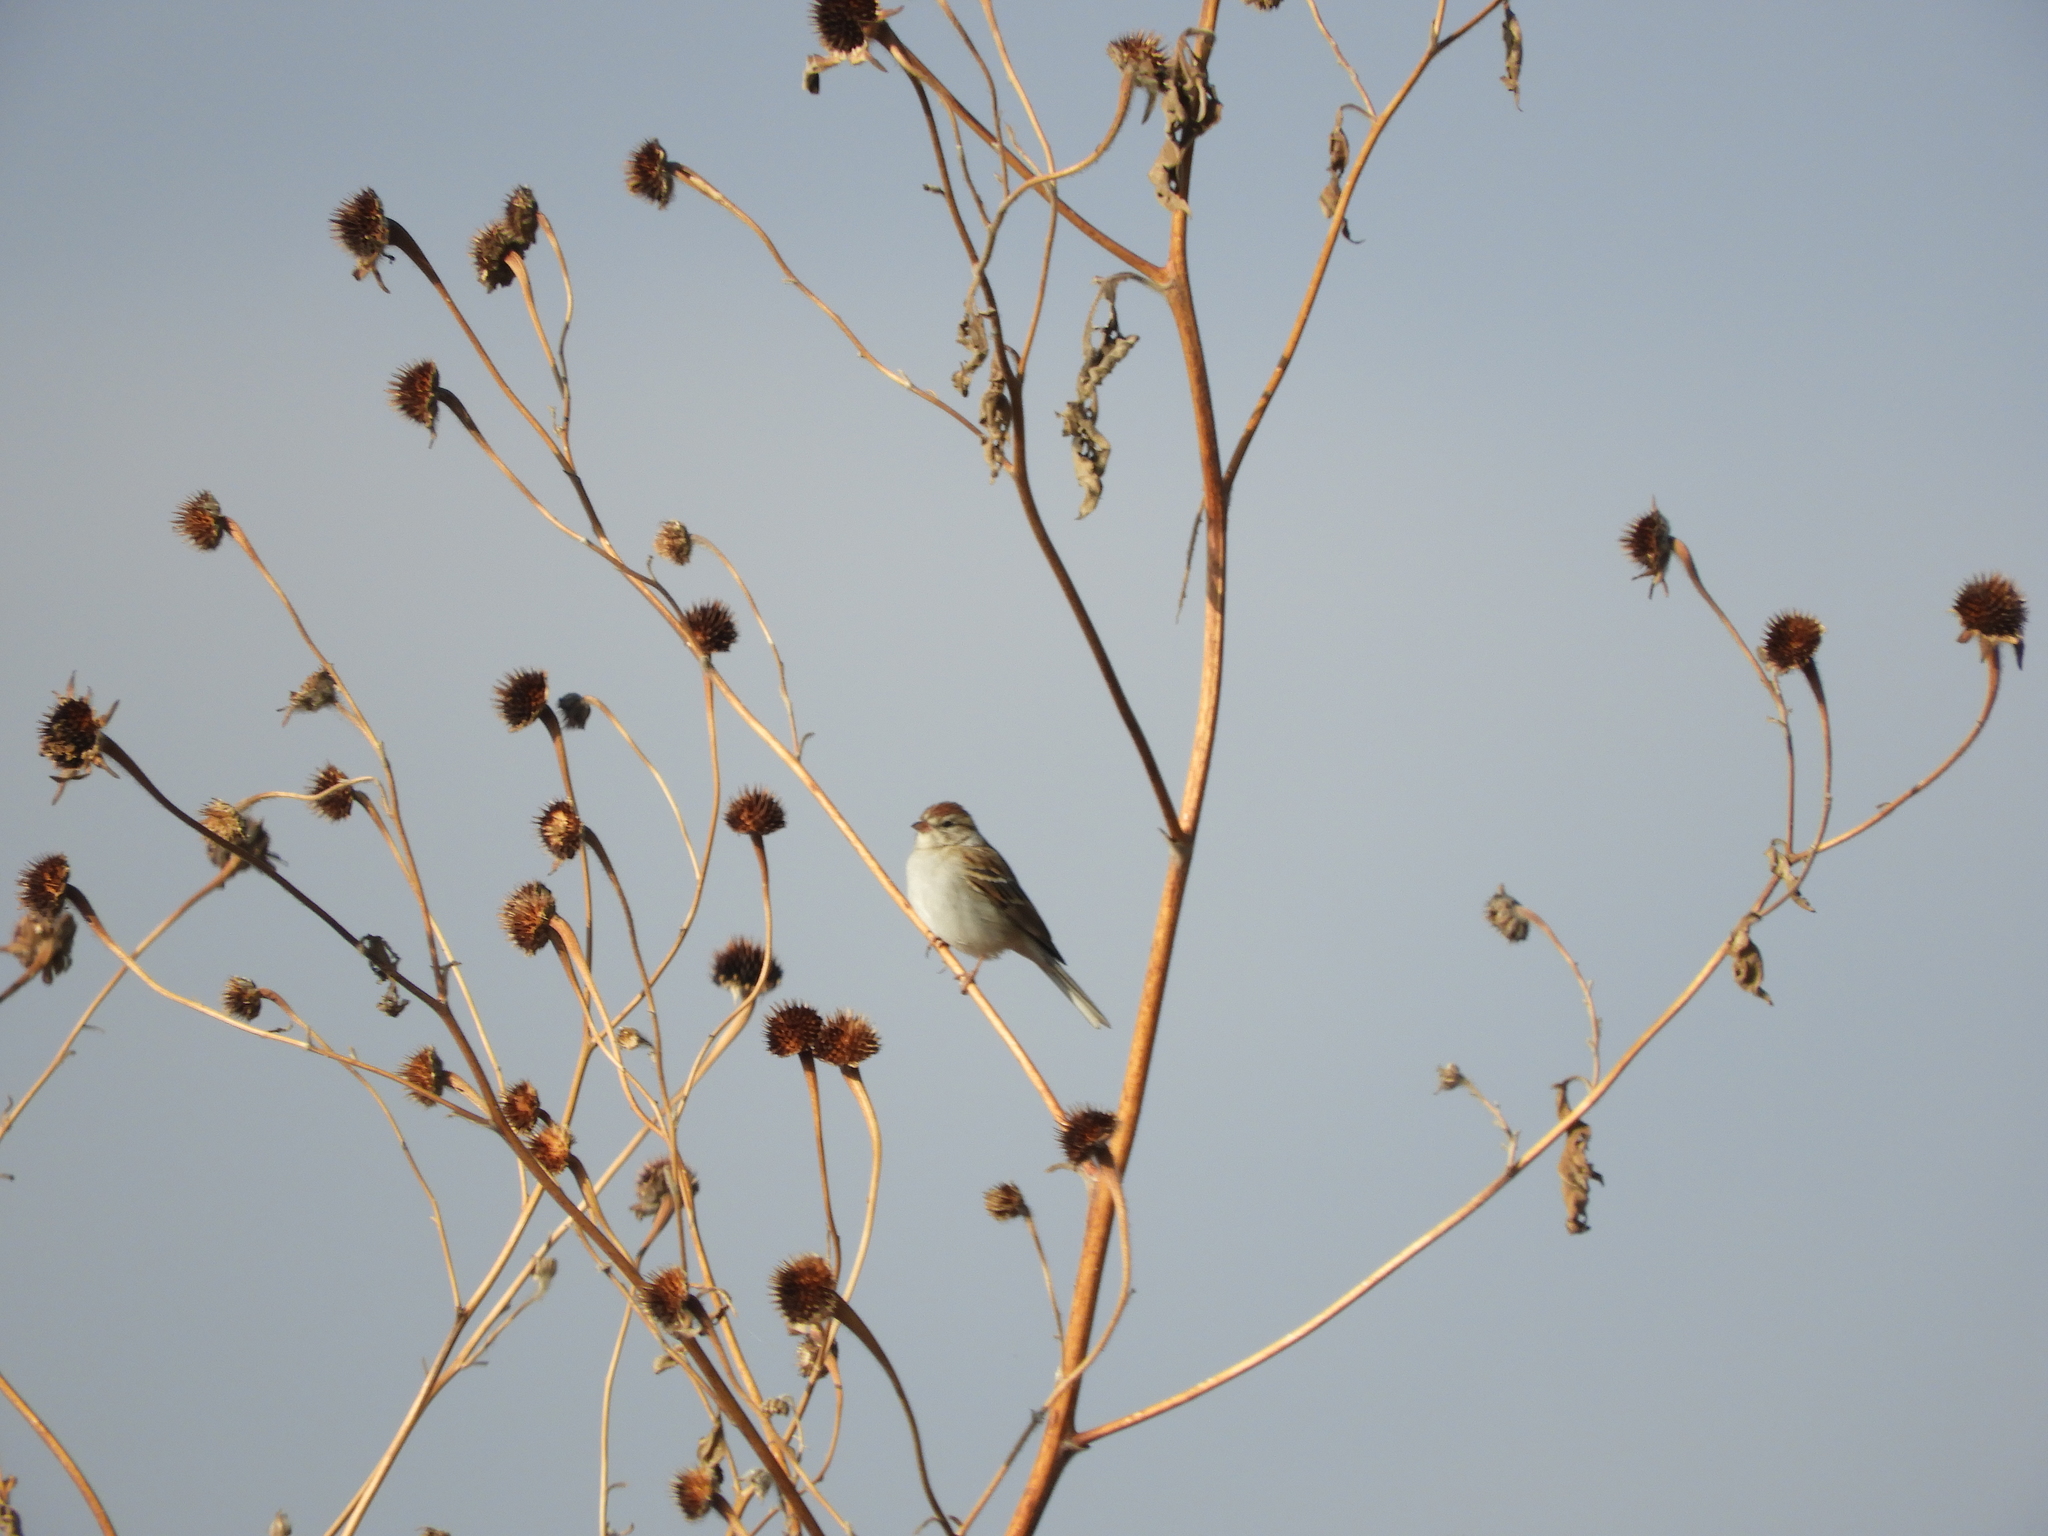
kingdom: Animalia
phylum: Chordata
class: Aves
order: Passeriformes
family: Passerellidae
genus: Spizella
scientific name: Spizella passerina
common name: Chipping sparrow
